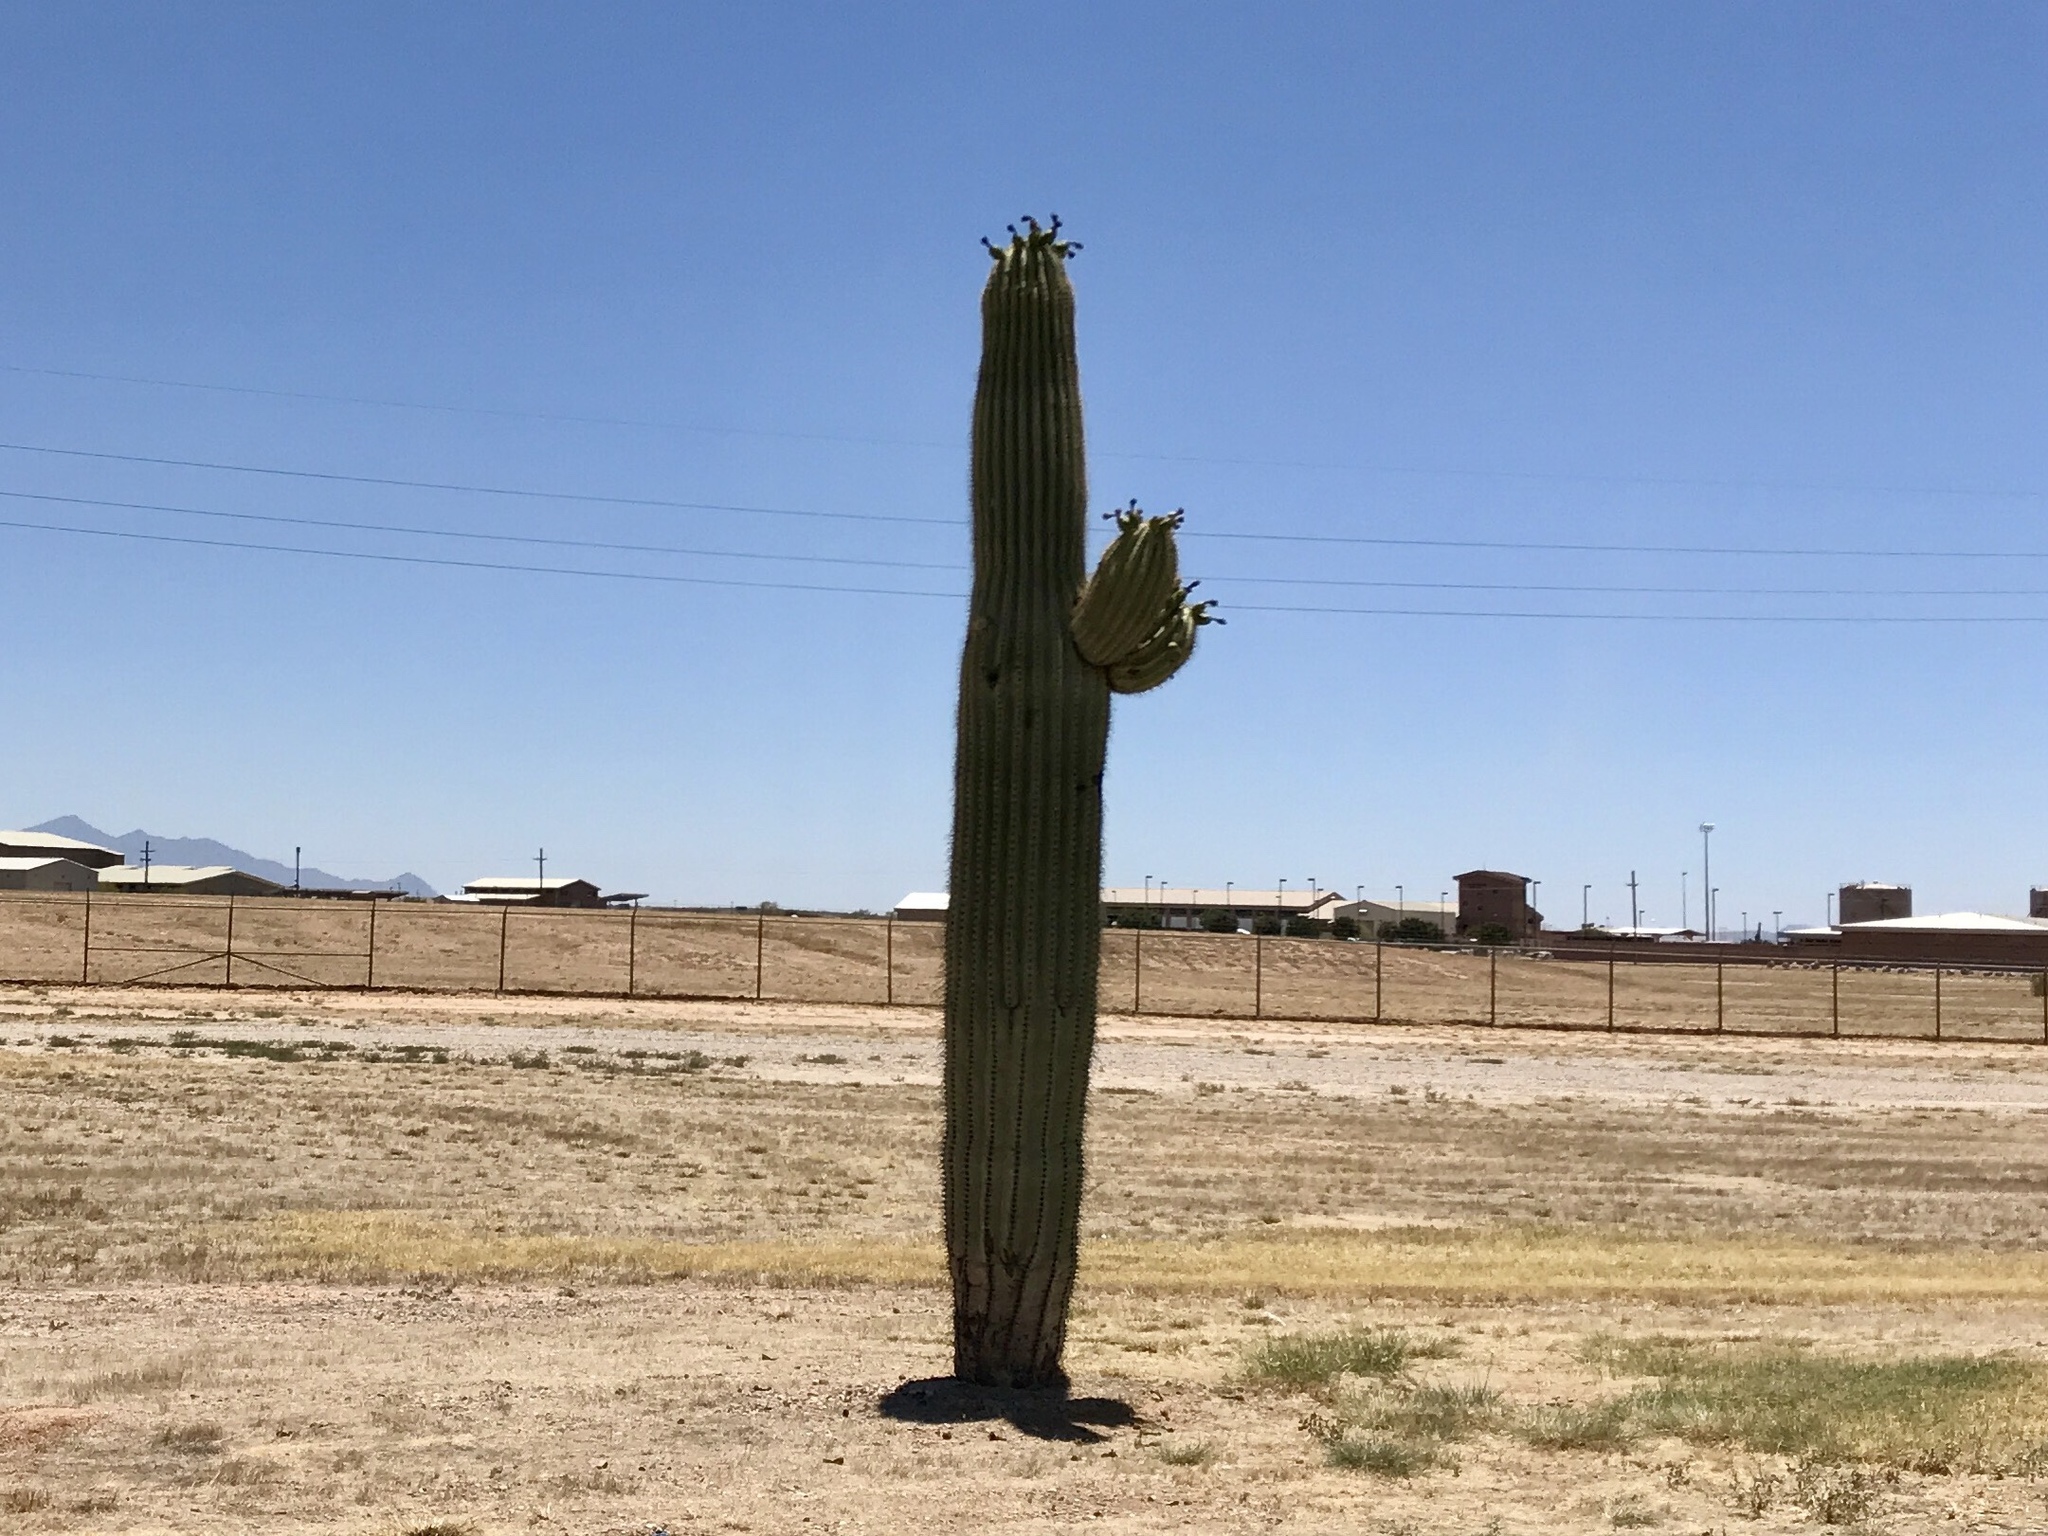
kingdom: Plantae
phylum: Tracheophyta
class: Magnoliopsida
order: Caryophyllales
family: Cactaceae
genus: Carnegiea
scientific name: Carnegiea gigantea
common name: Saguaro
